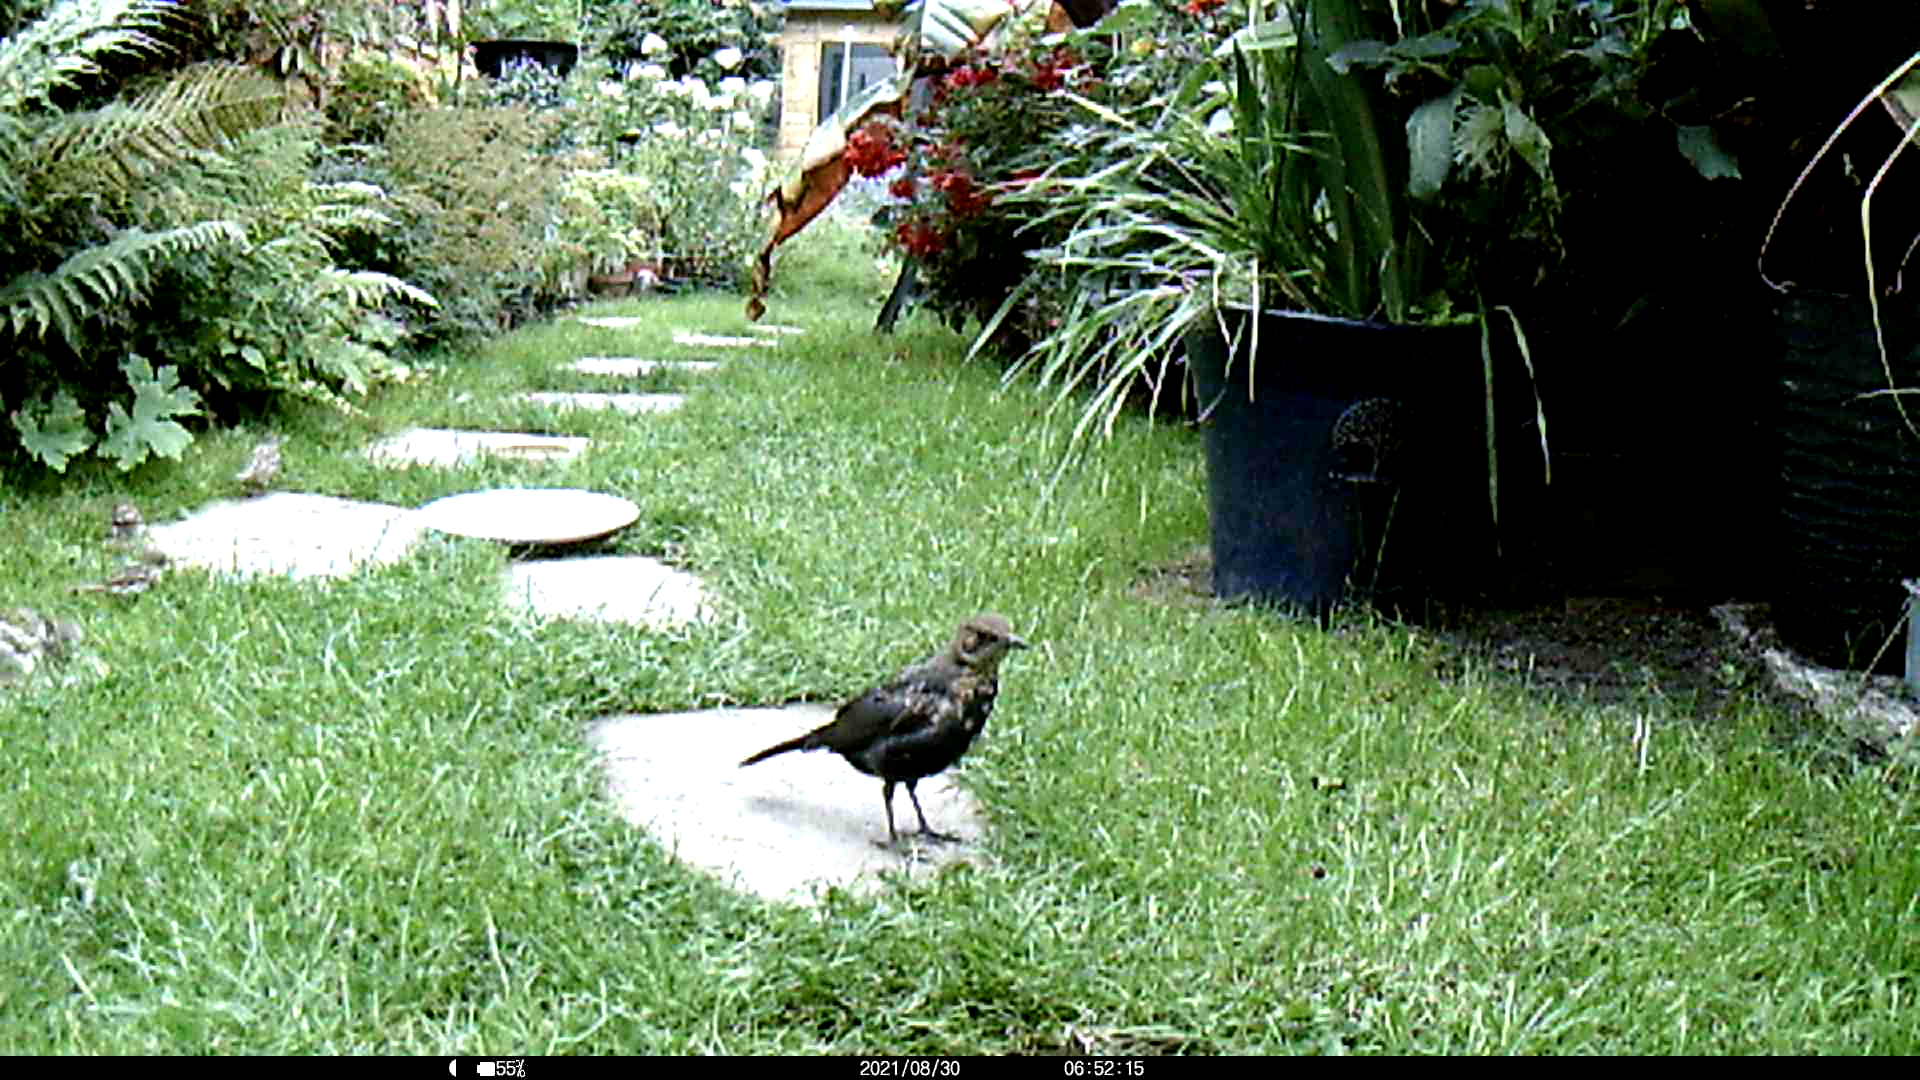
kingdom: Animalia
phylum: Chordata
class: Aves
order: Passeriformes
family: Sturnidae
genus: Sturnus
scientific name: Sturnus vulgaris
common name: Common starling
